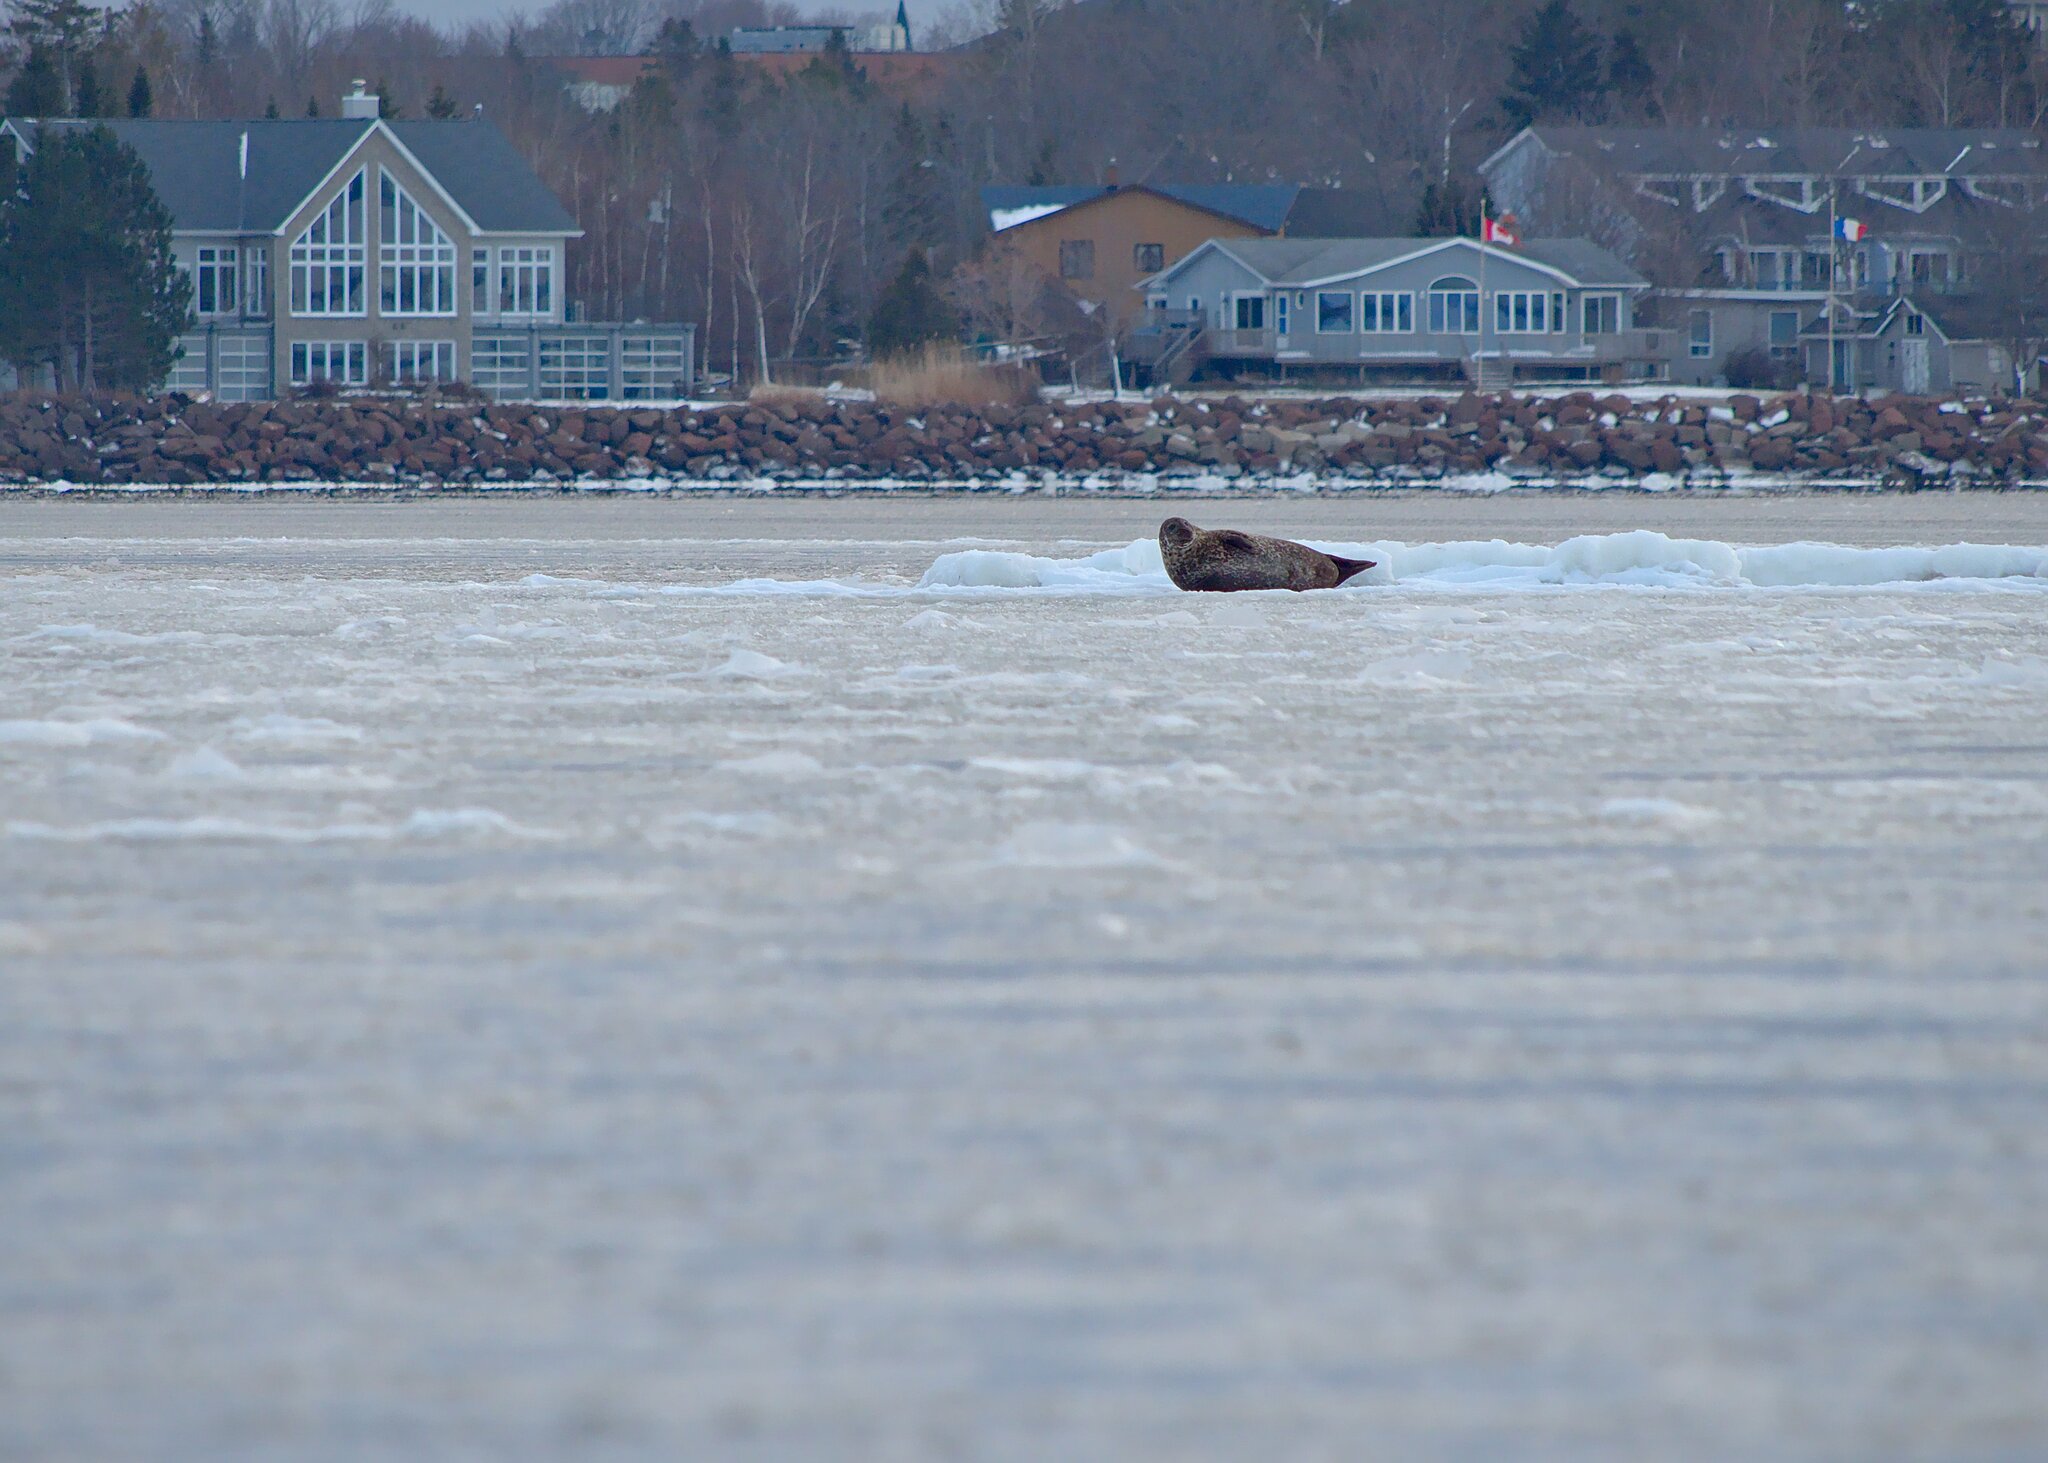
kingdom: Animalia
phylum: Chordata
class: Mammalia
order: Carnivora
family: Phocidae
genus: Phoca
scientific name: Phoca vitulina
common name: Harbor seal
